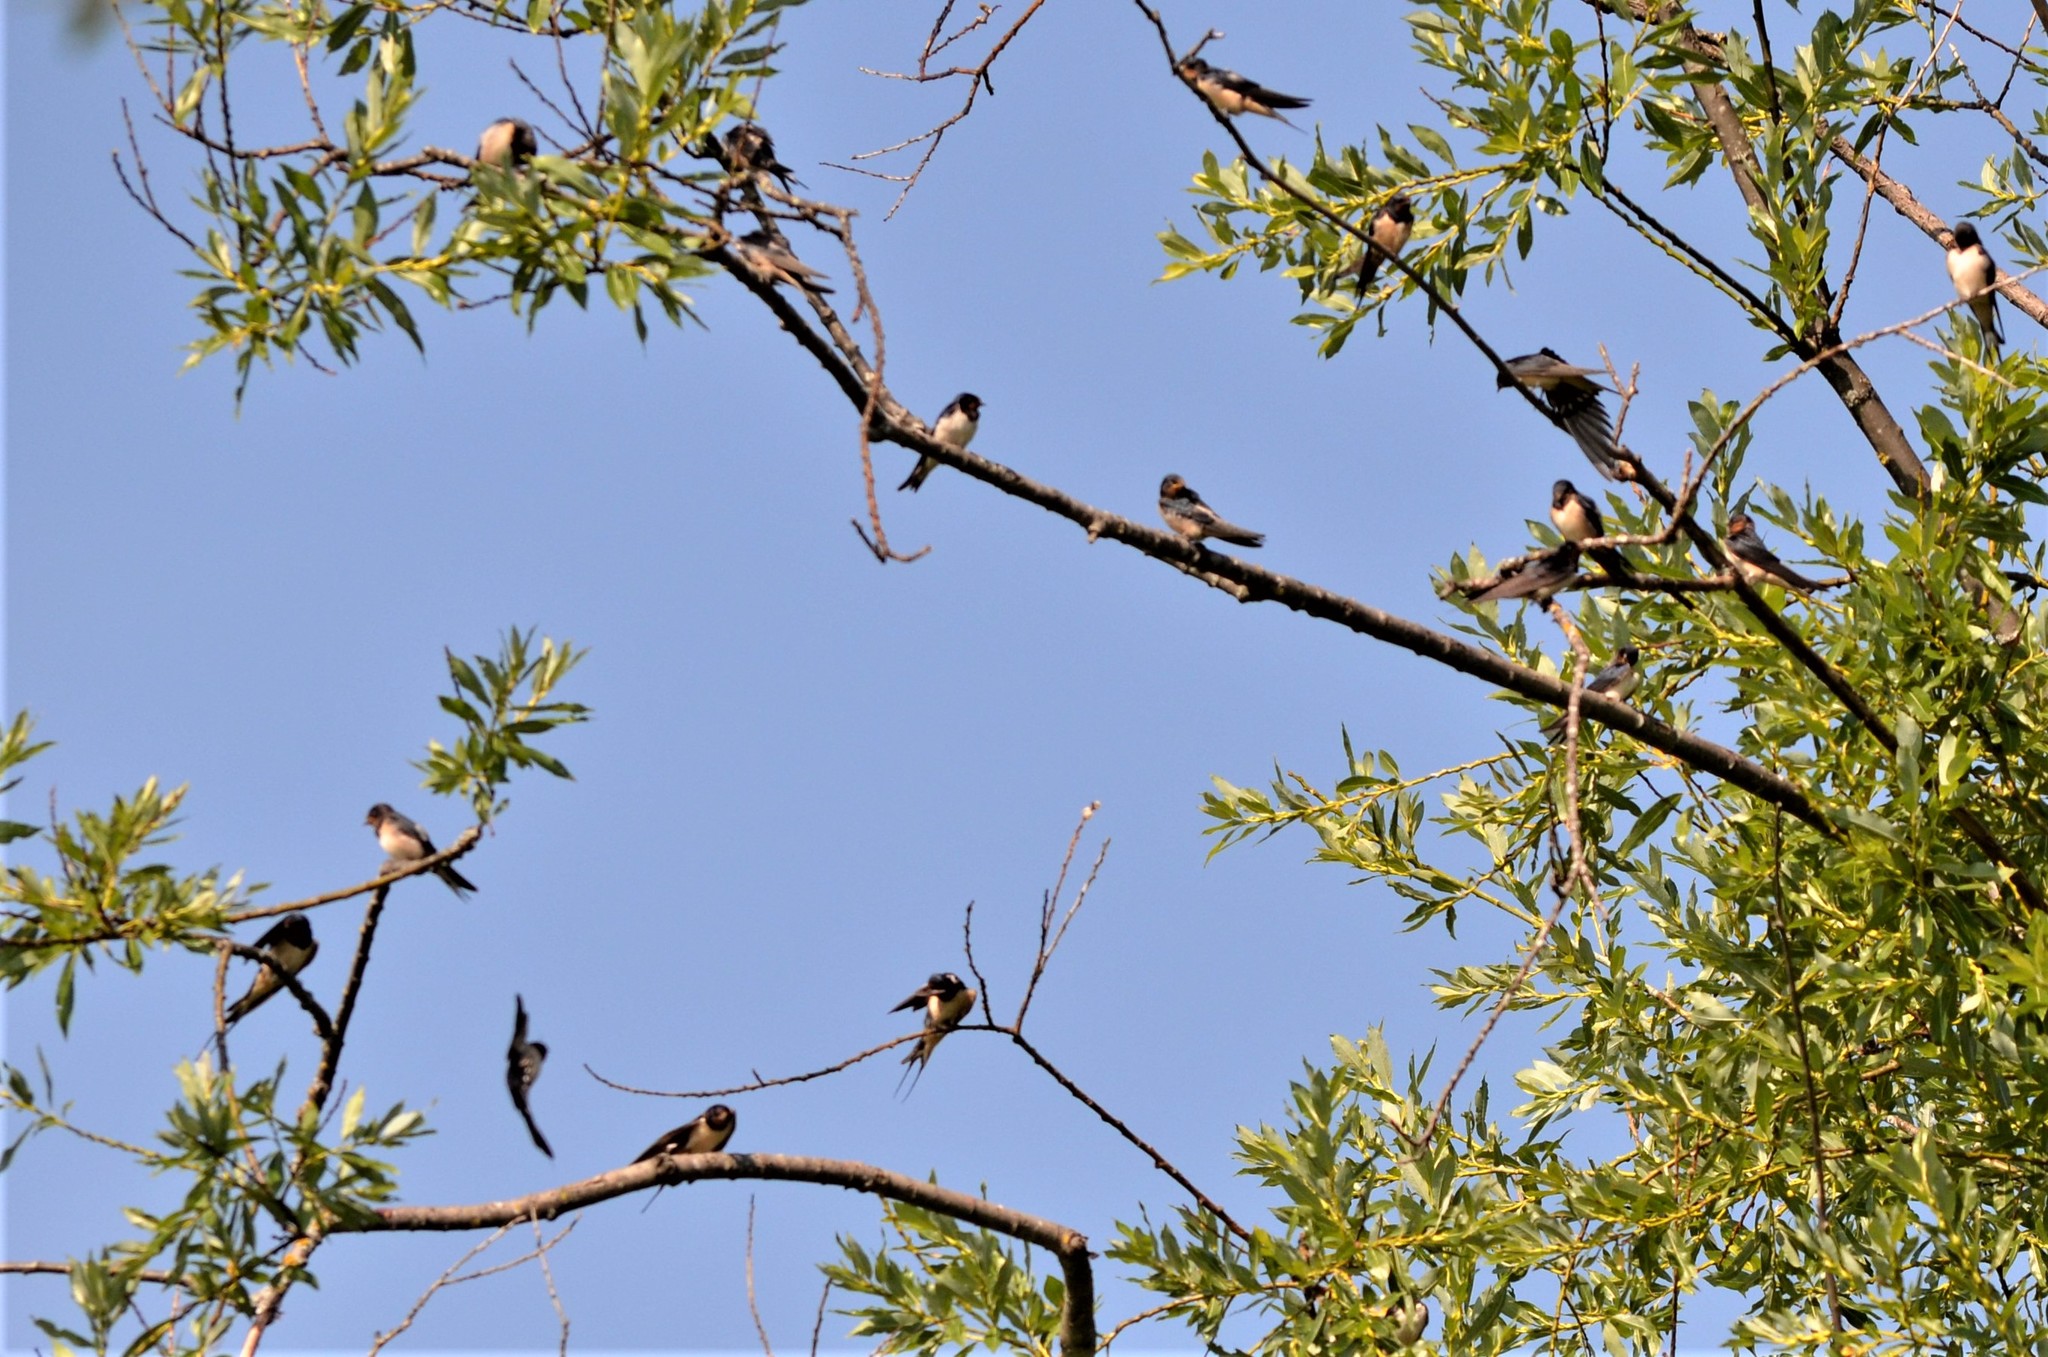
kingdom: Animalia
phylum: Chordata
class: Aves
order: Passeriformes
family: Hirundinidae
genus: Hirundo
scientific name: Hirundo rustica
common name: Barn swallow
